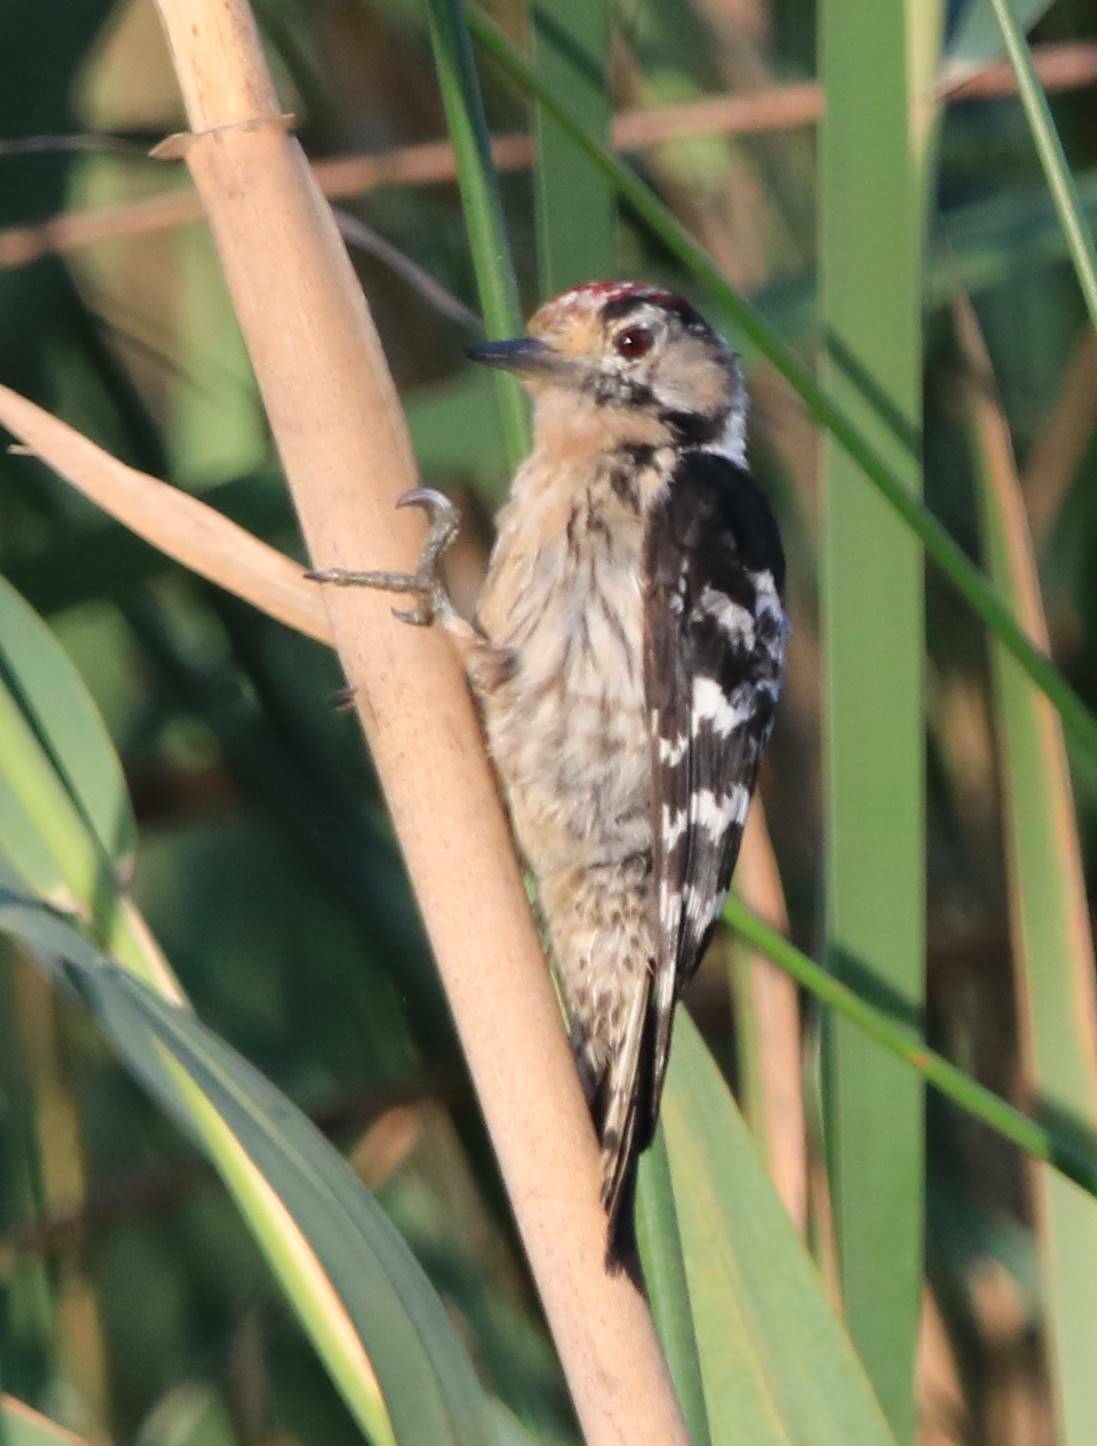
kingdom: Animalia
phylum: Chordata
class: Aves
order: Piciformes
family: Picidae
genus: Dryobates
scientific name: Dryobates minor
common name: Lesser spotted woodpecker
